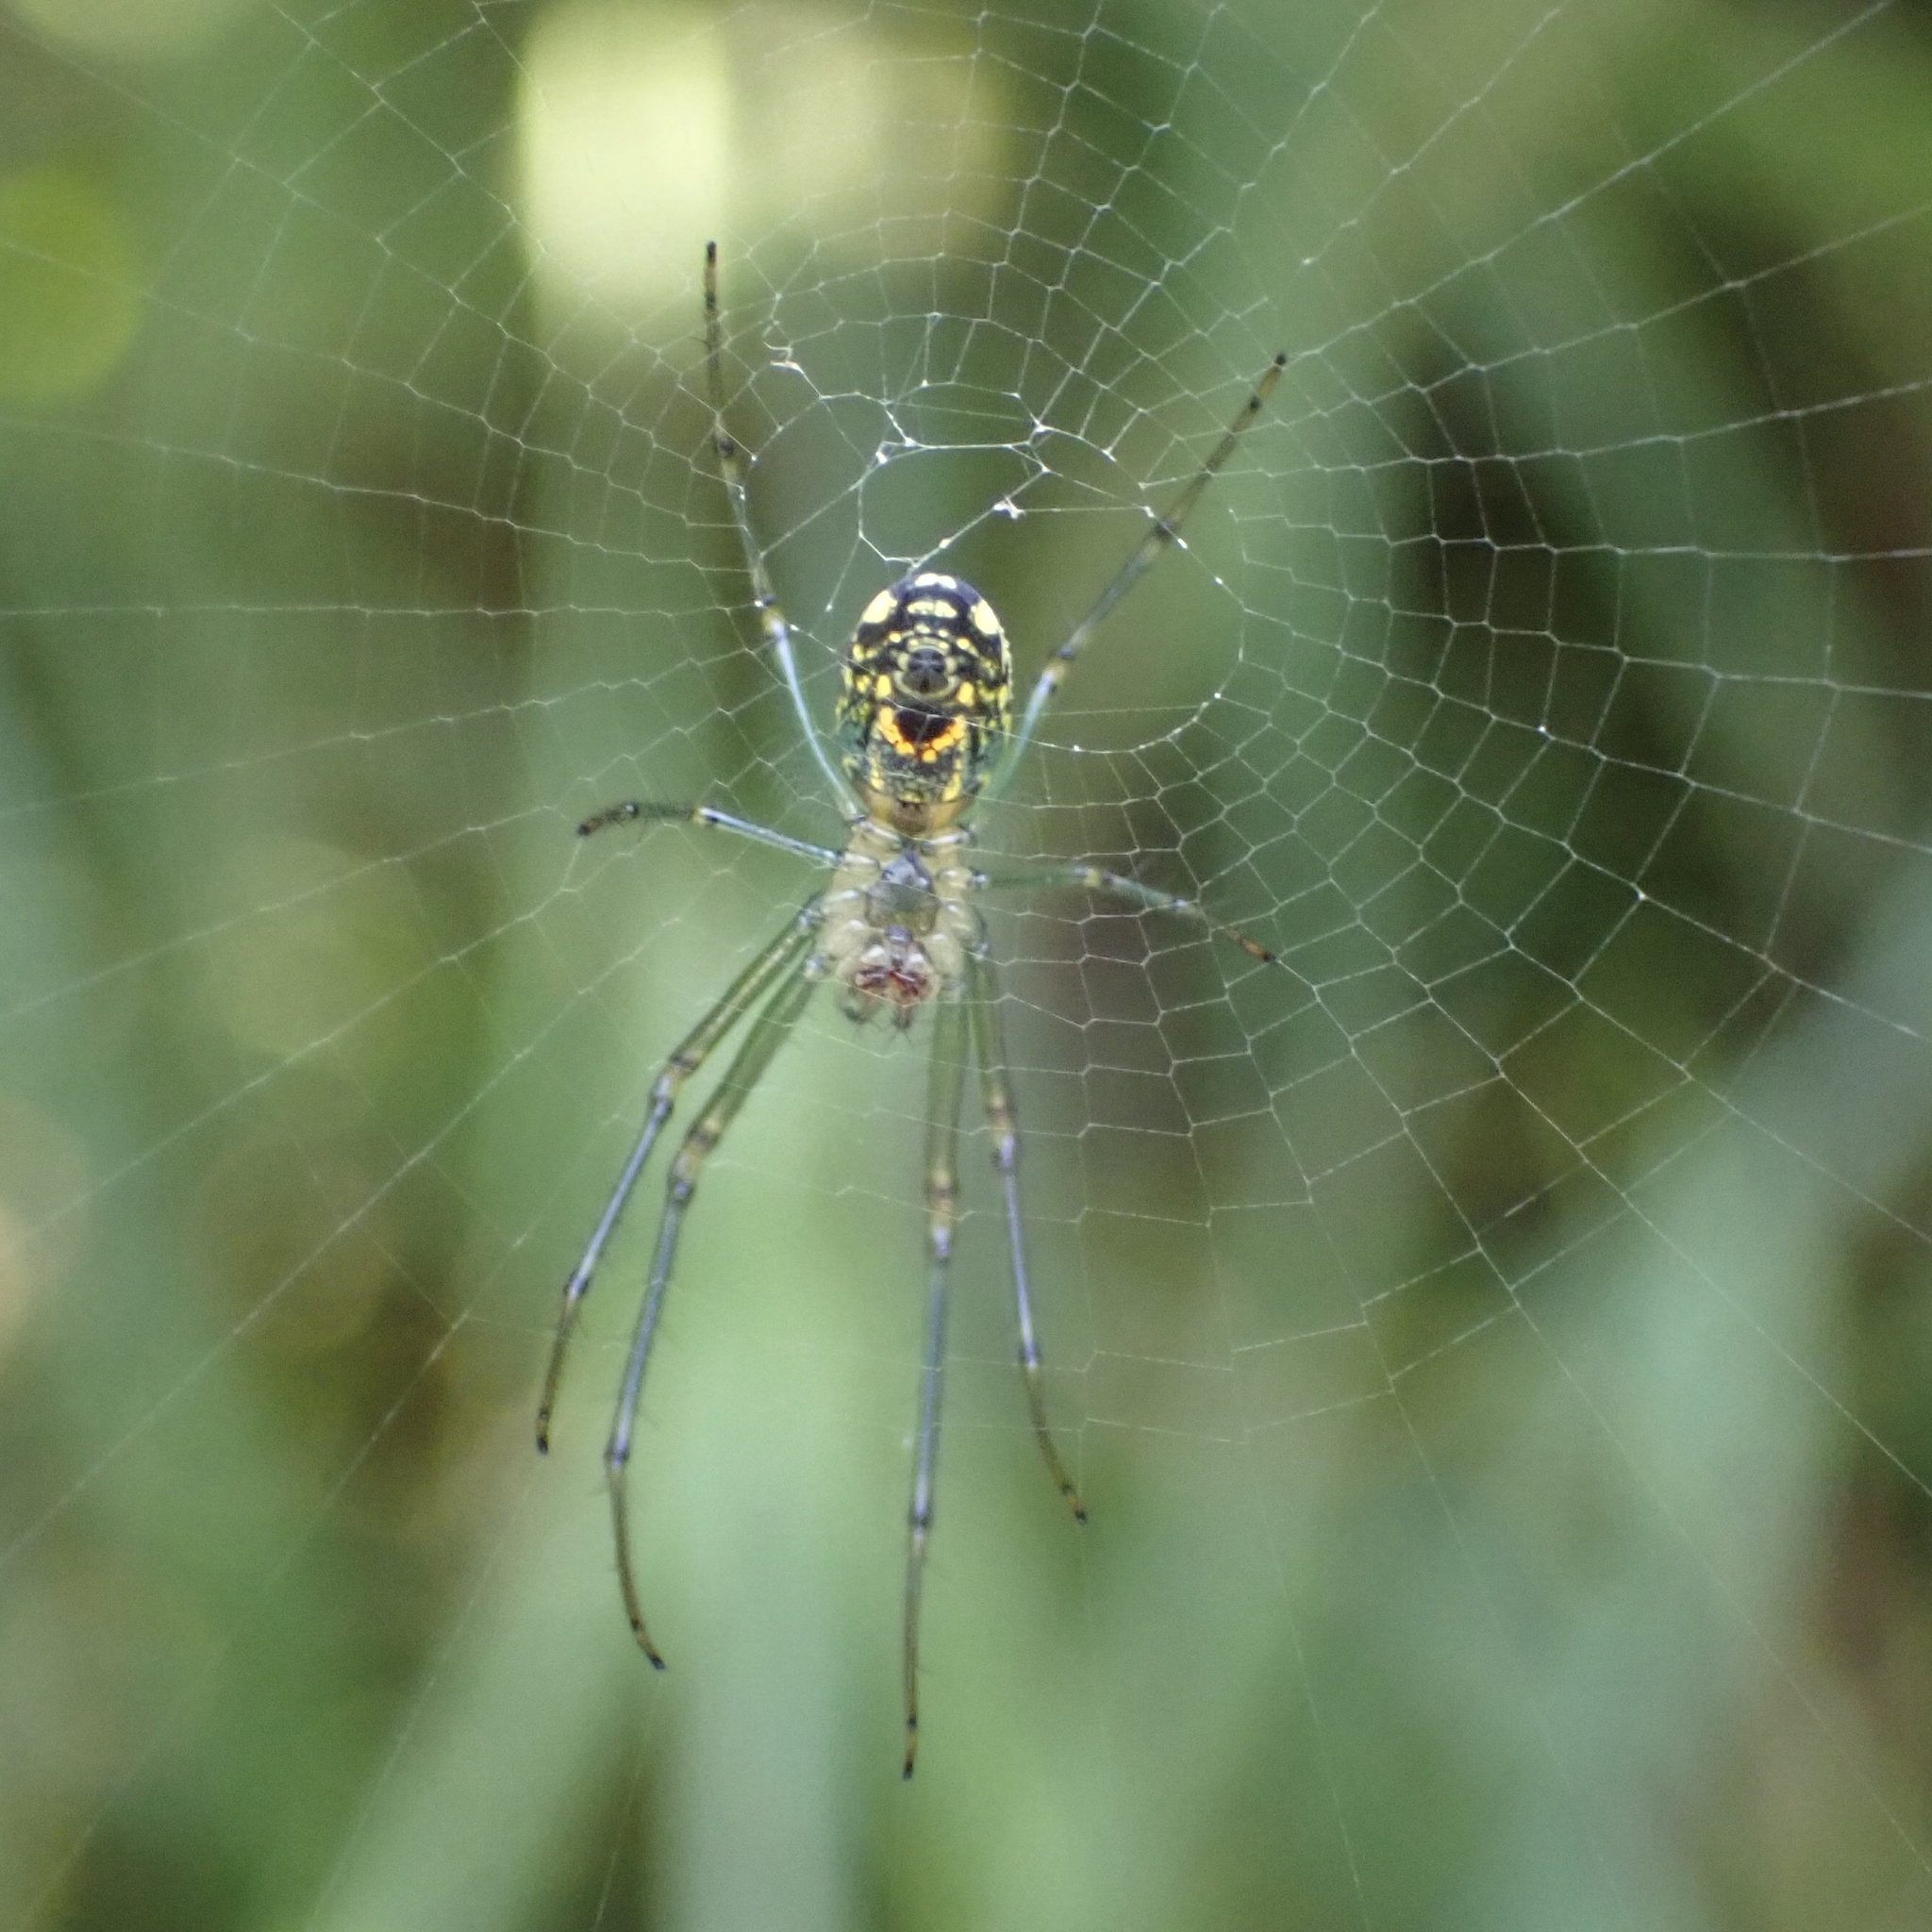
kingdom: Animalia
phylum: Arthropoda
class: Arachnida
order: Araneae
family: Tetragnathidae
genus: Leucauge
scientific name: Leucauge venusta
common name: Longjawed orb weavers
